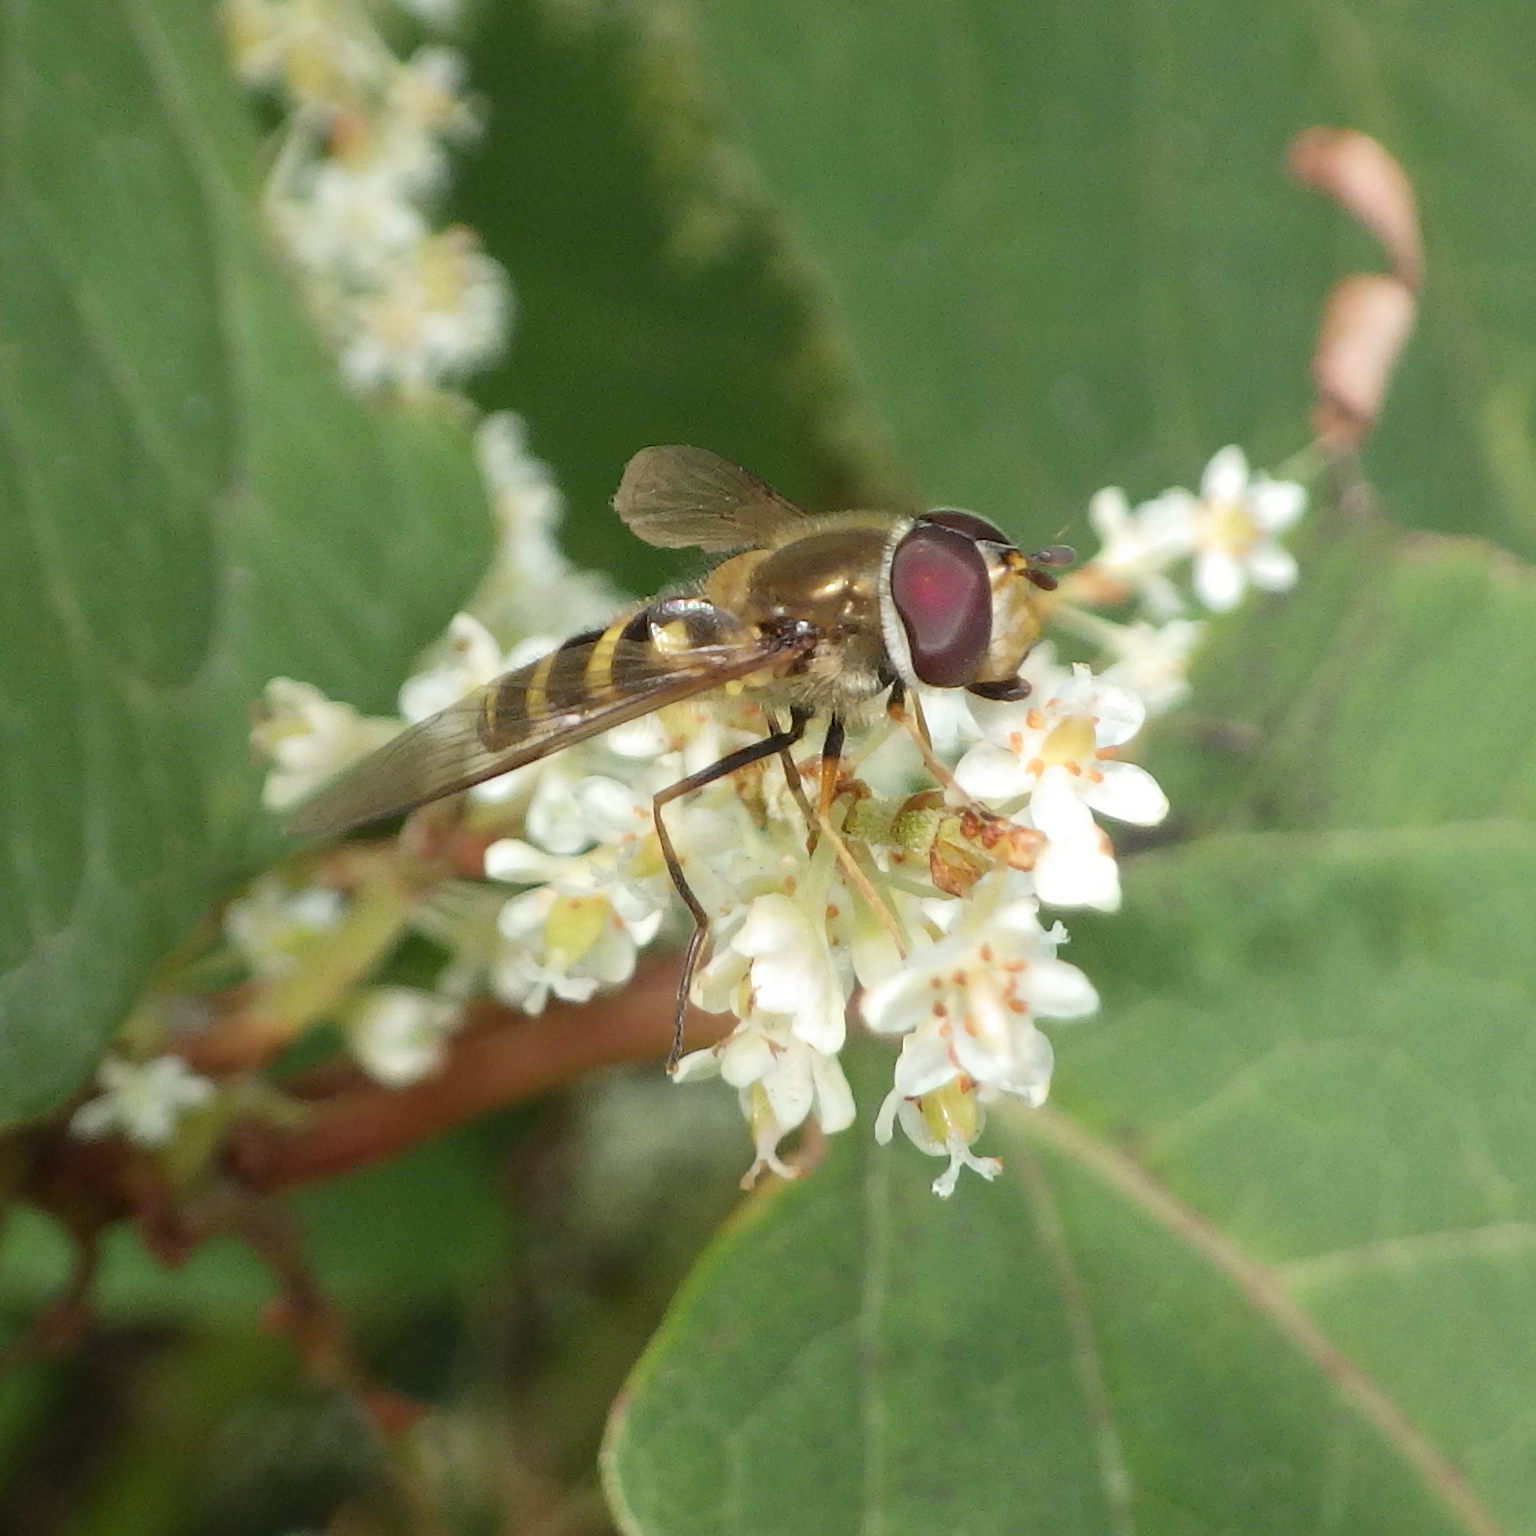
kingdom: Animalia
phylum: Arthropoda
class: Insecta
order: Diptera
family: Syrphidae
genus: Syrphus
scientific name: Syrphus
